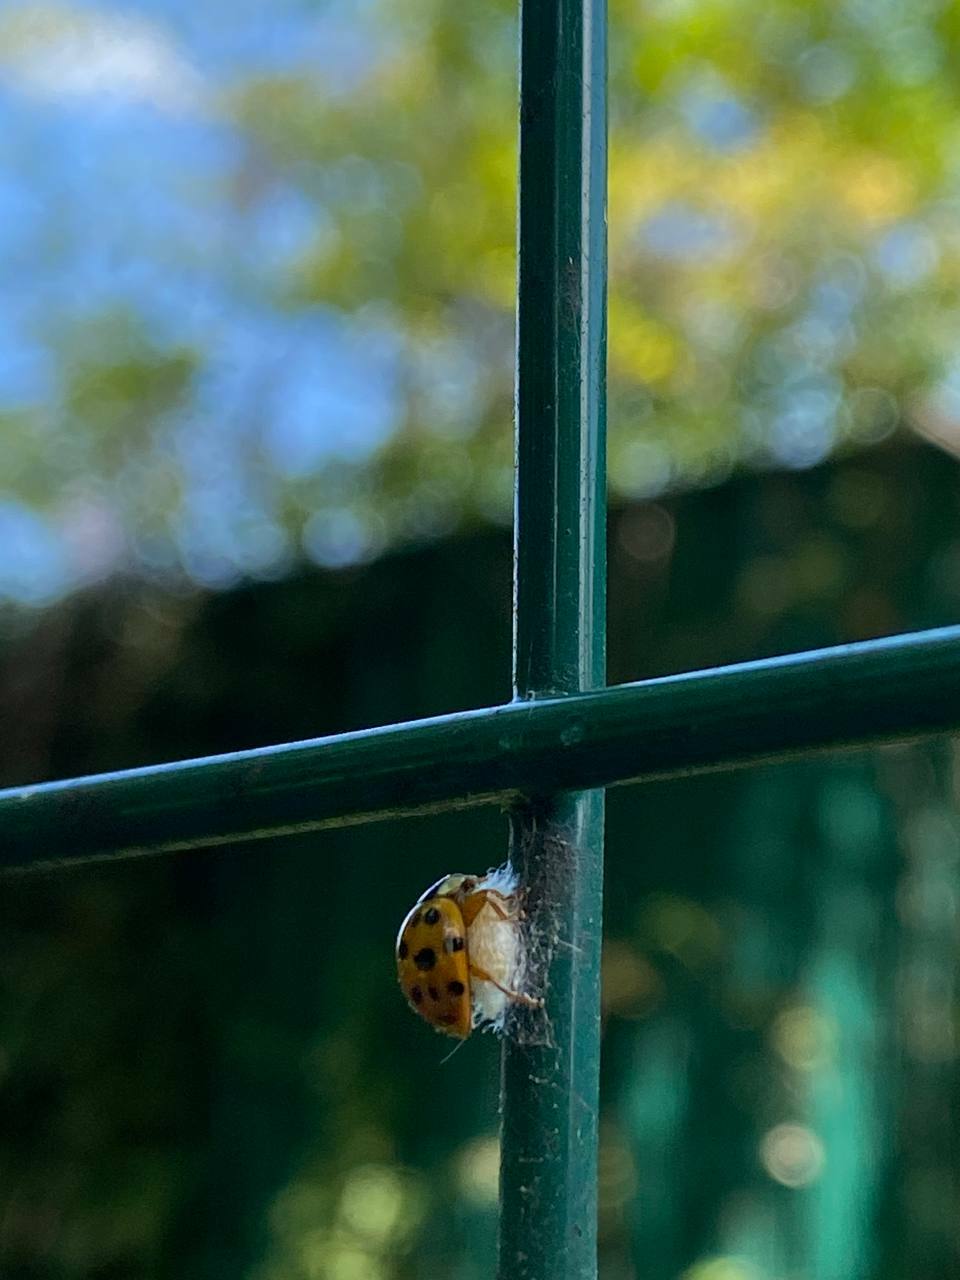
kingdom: Viruses
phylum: Pisuviricota
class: Pisoniviricetes
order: Picornavirales
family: Iflaviridae
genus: Iflavirus
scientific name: Iflavirus dinococcinellae
